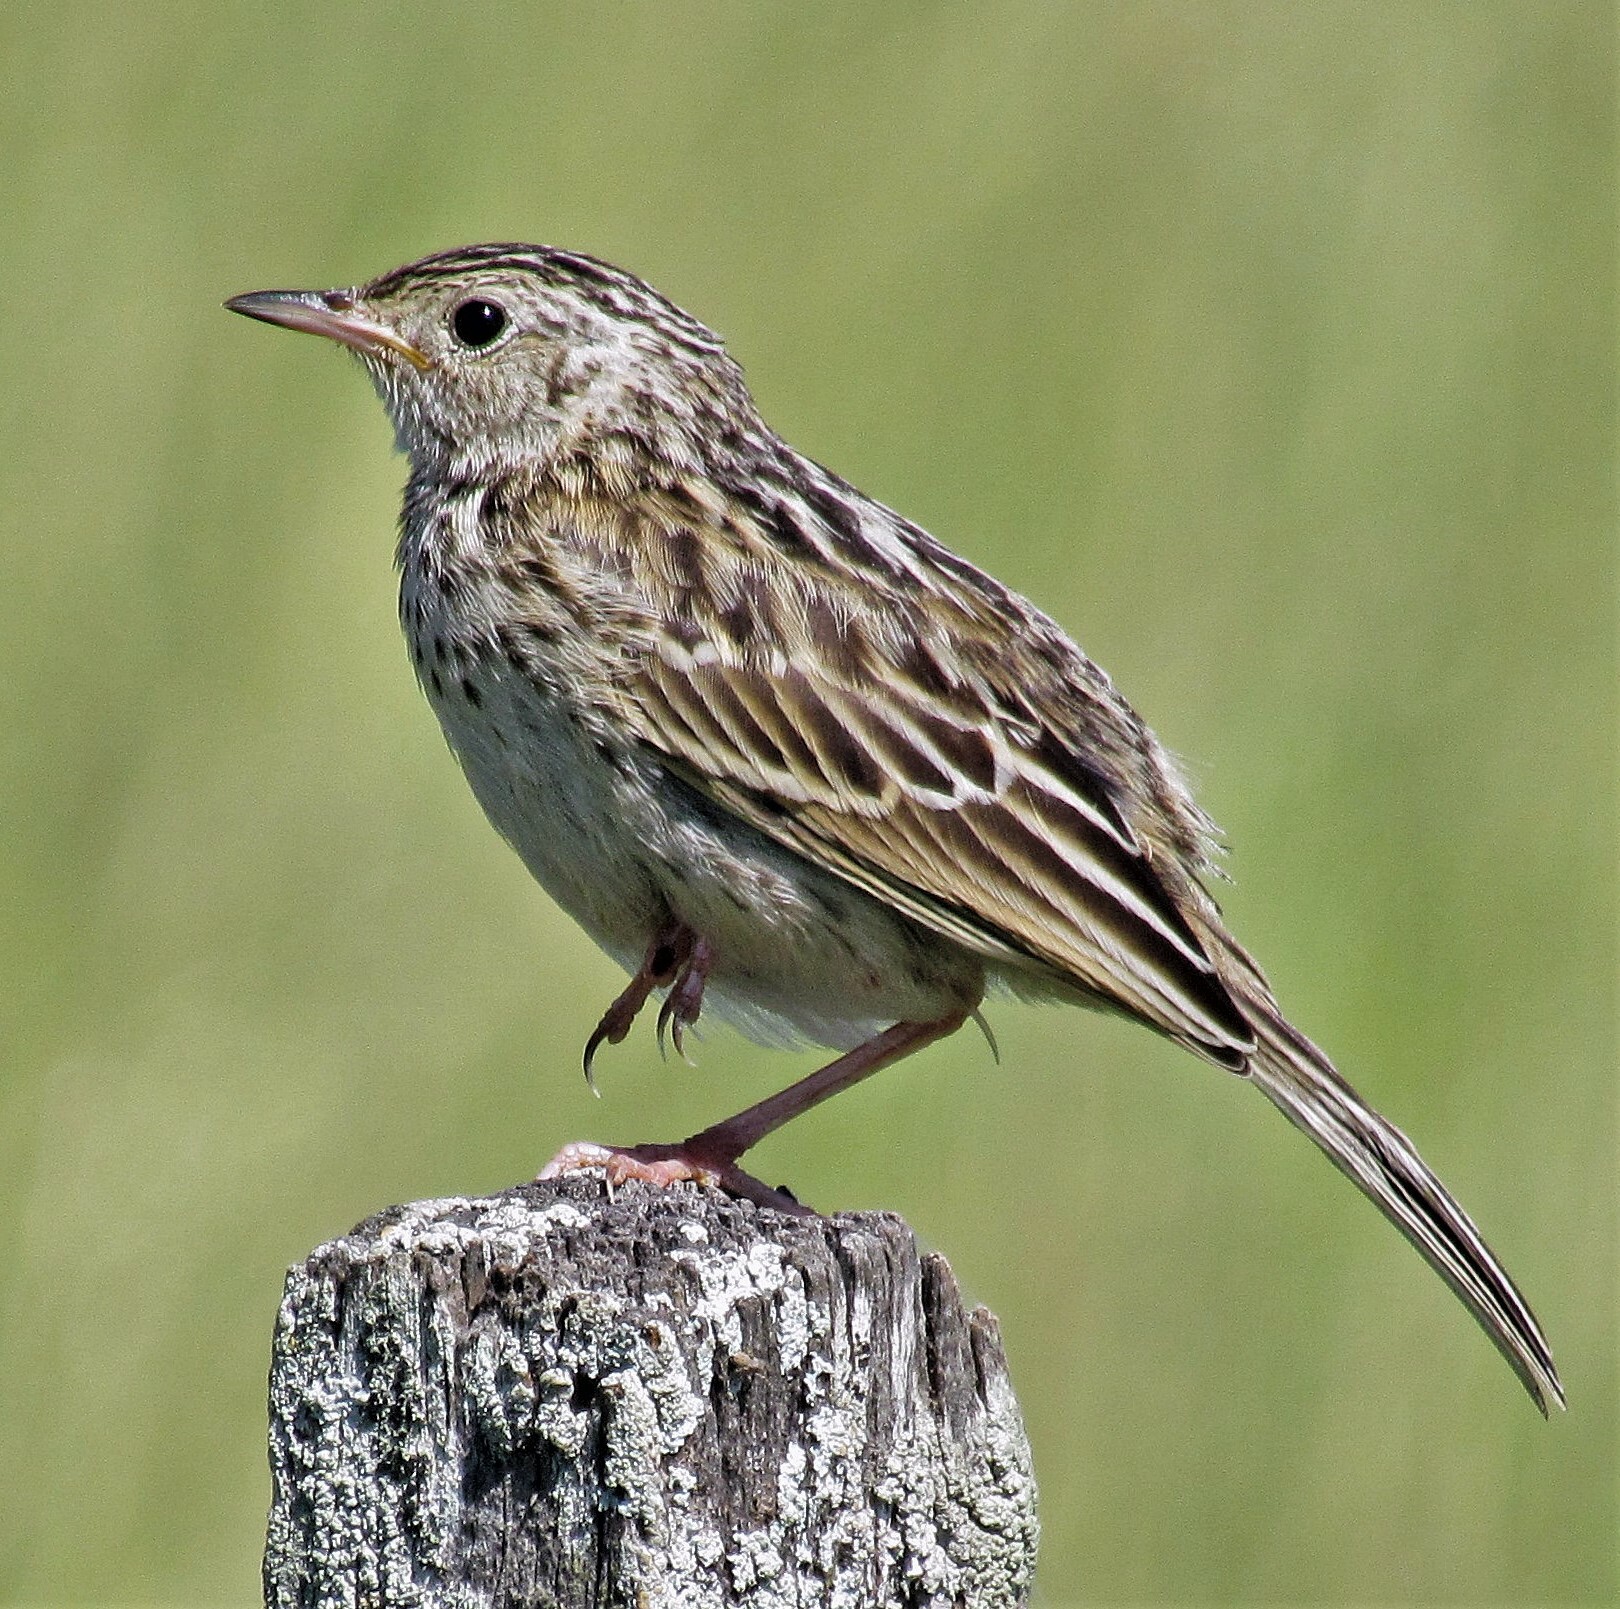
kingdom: Animalia
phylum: Chordata
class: Aves
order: Passeriformes
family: Motacillidae
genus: Anthus
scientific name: Anthus chii
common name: Yellowish pipit
